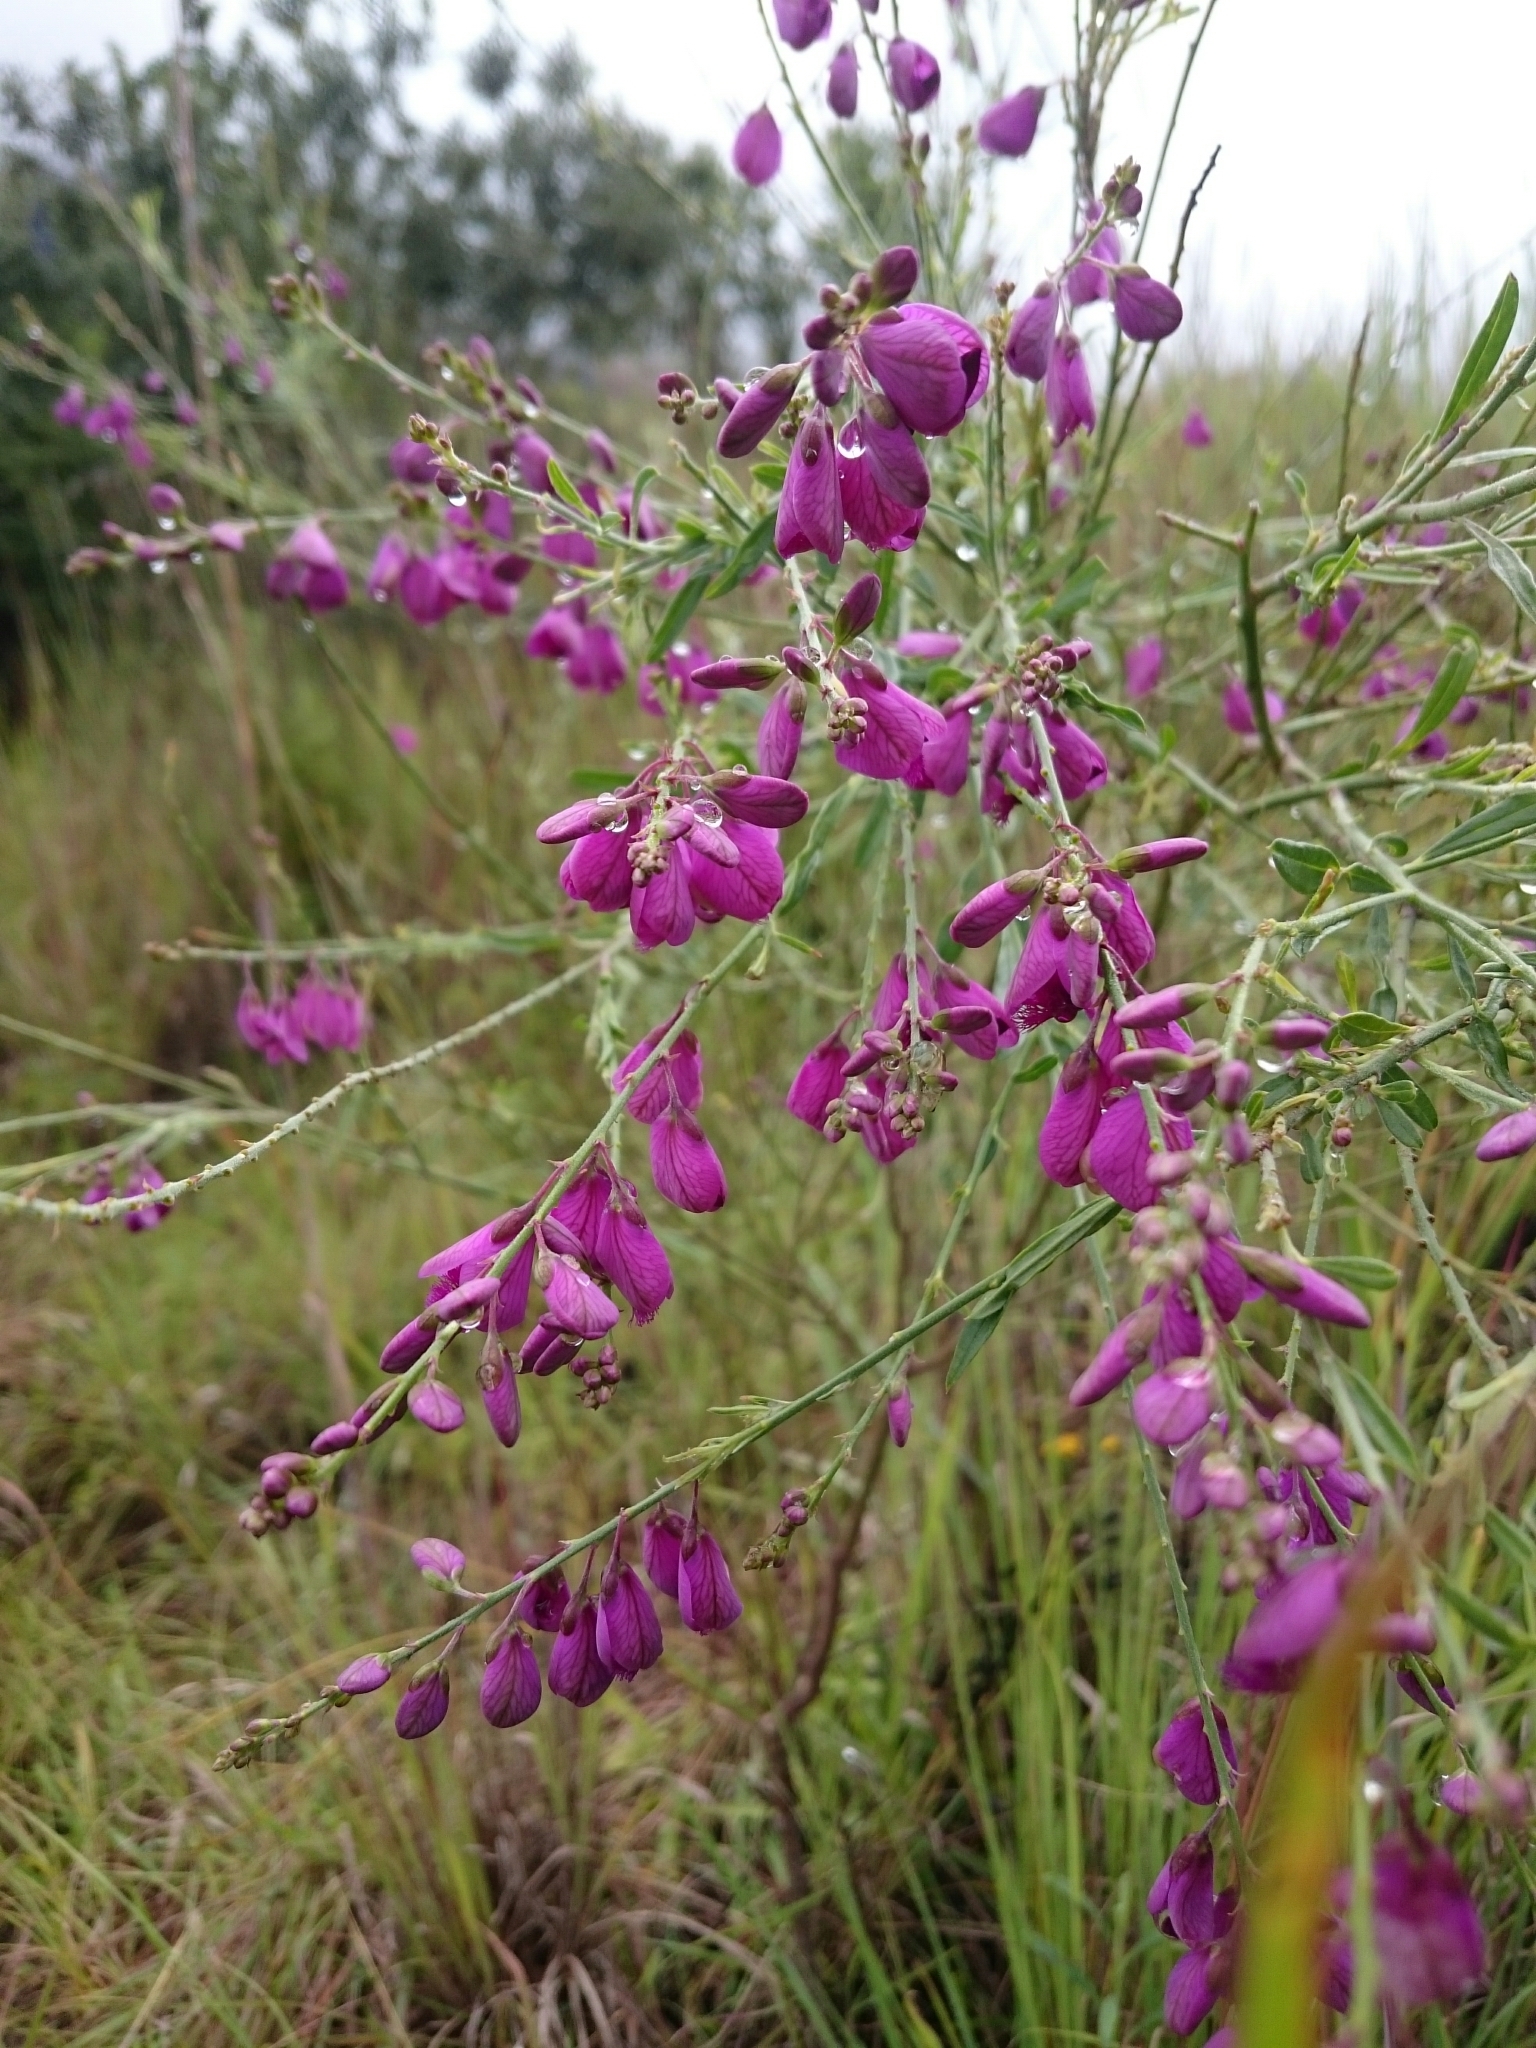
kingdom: Plantae
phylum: Tracheophyta
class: Magnoliopsida
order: Fabales
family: Polygalaceae
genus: Polygala
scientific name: Polygala virgata
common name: Milkwort
